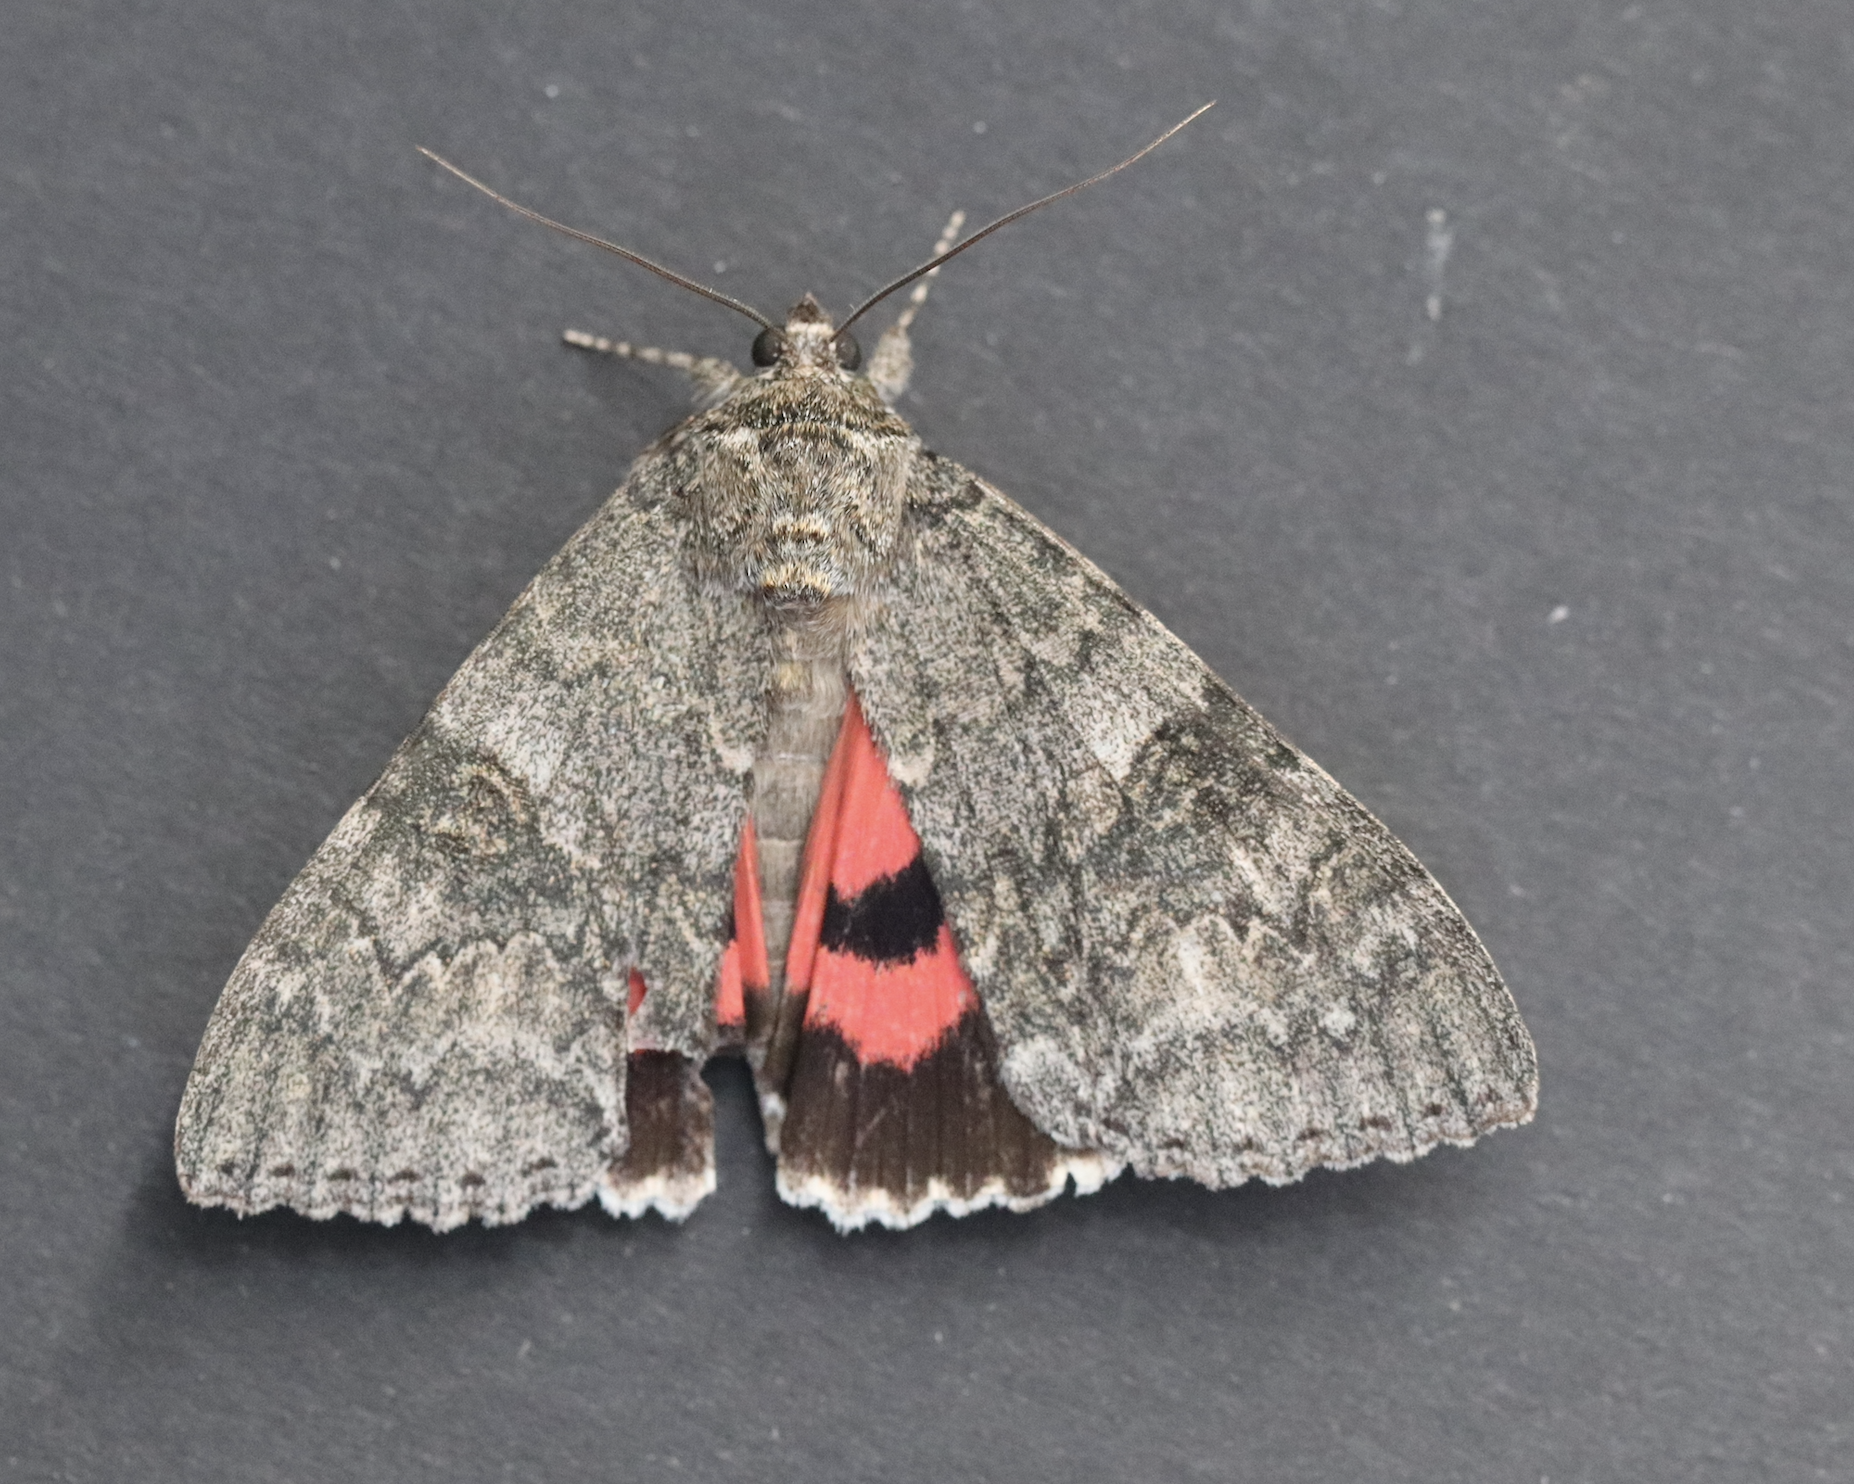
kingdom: Animalia
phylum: Arthropoda
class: Insecta
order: Lepidoptera
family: Erebidae
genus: Catocala
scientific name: Catocala nupta
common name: Red underwing
